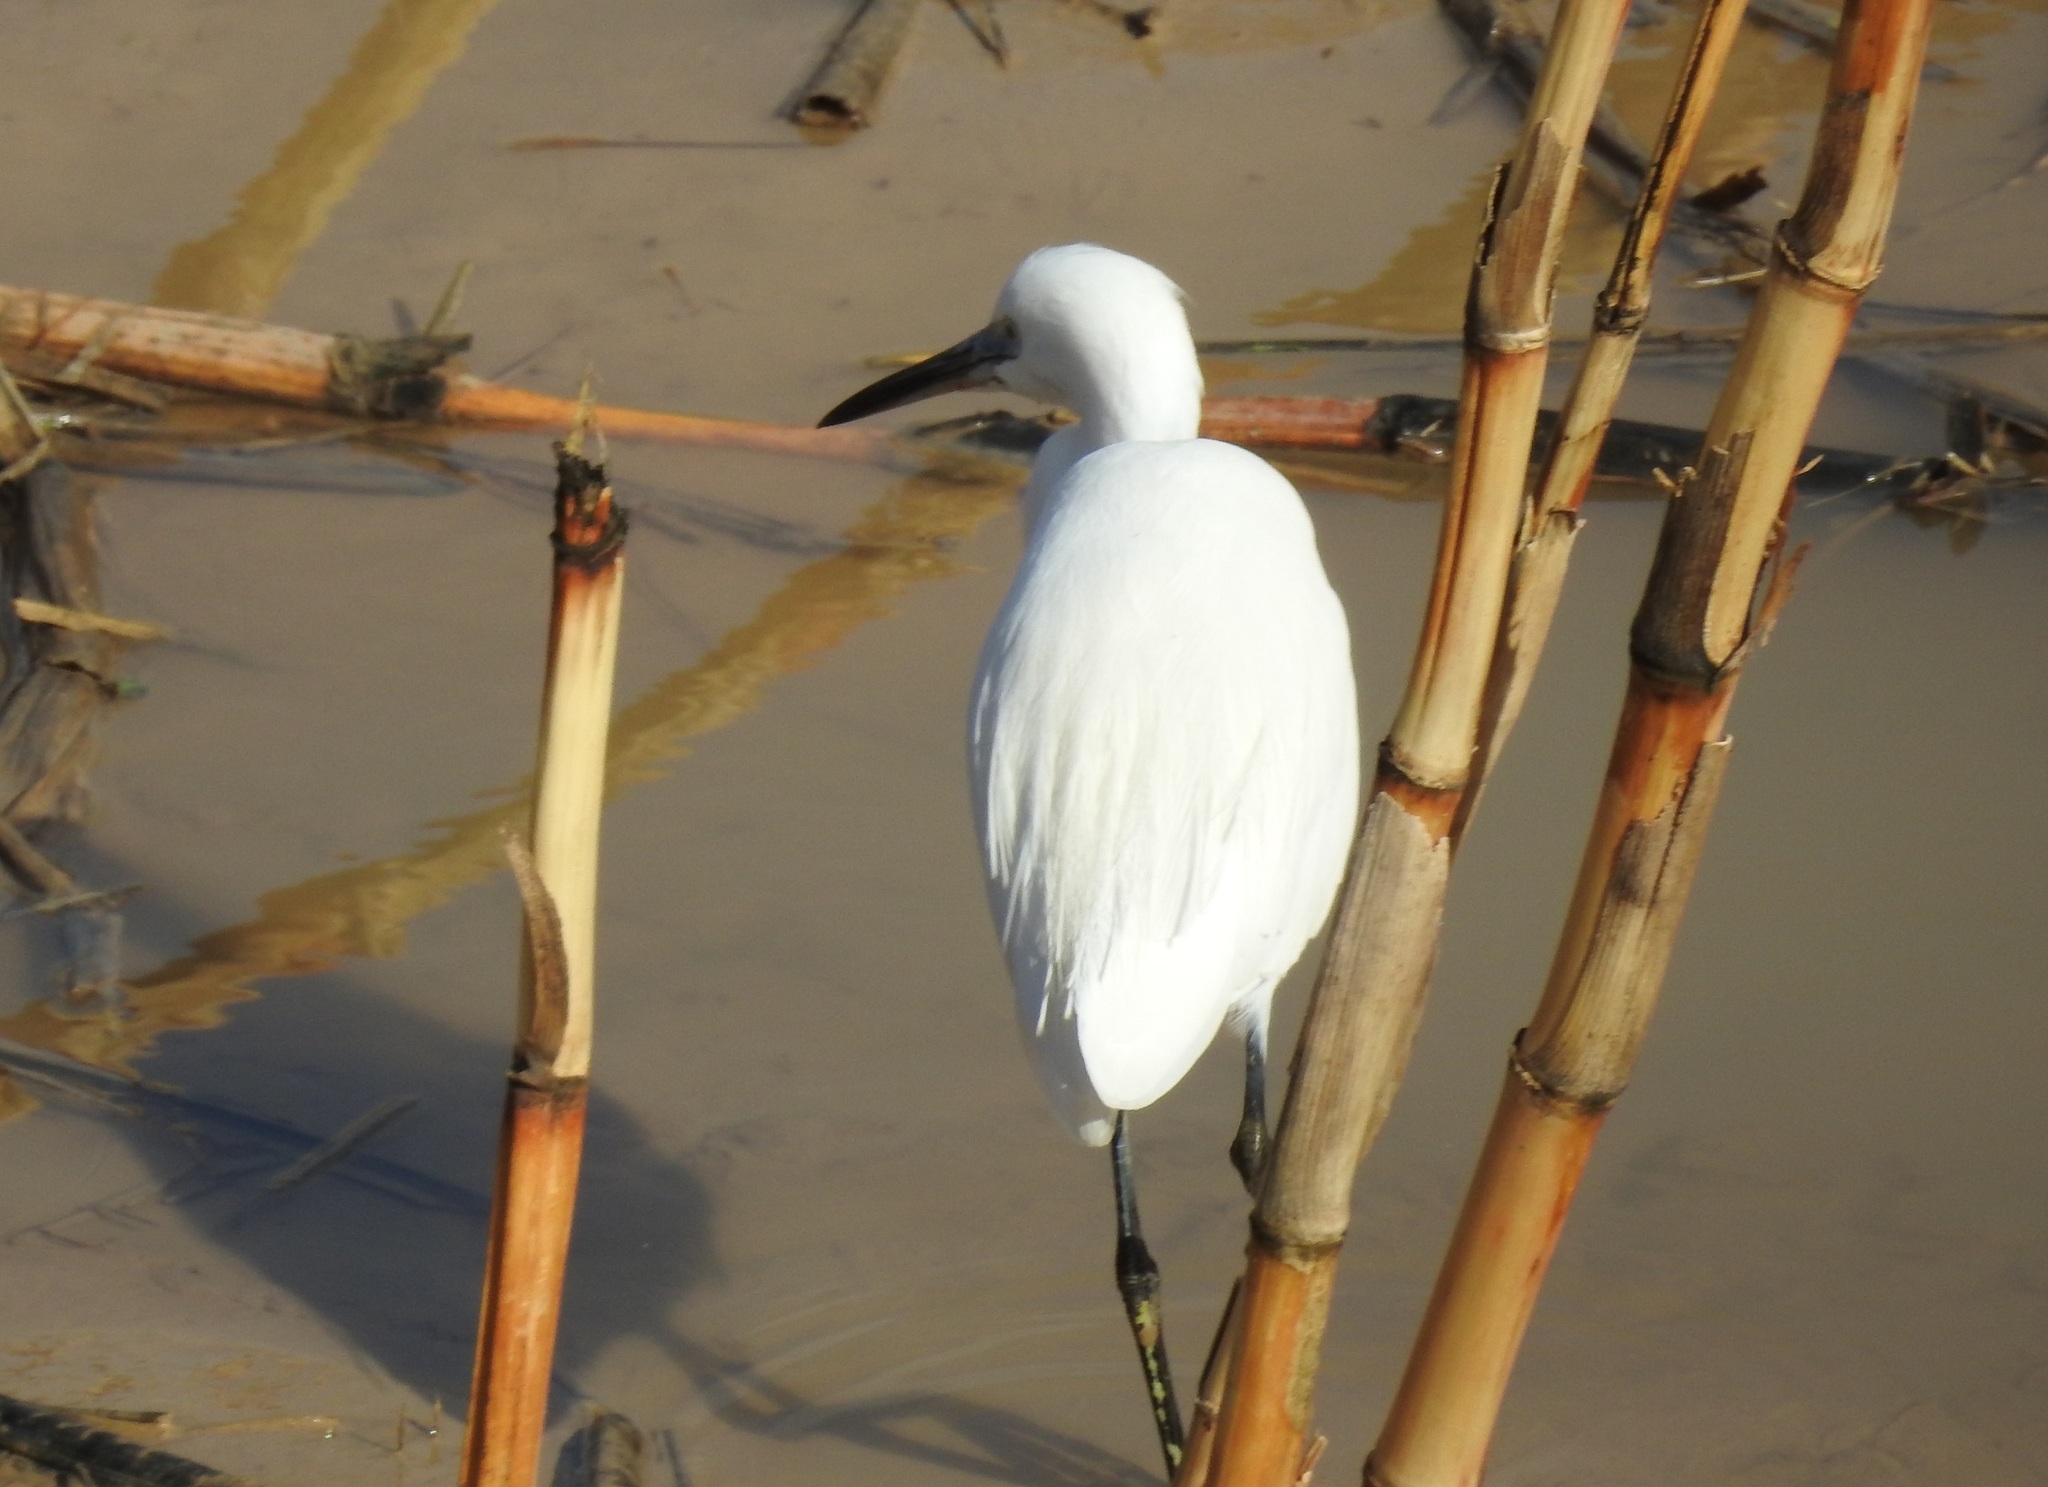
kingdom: Animalia
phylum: Chordata
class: Aves
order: Pelecaniformes
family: Ardeidae
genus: Egretta
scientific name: Egretta garzetta
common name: Little egret
